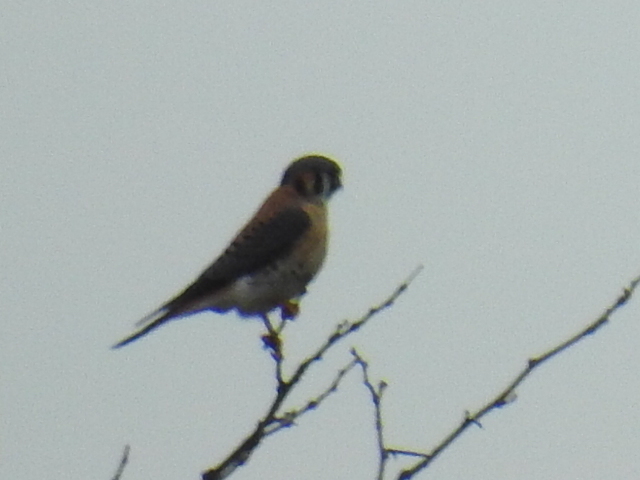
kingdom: Animalia
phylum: Chordata
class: Aves
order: Falconiformes
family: Falconidae
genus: Falco
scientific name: Falco sparverius
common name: American kestrel
